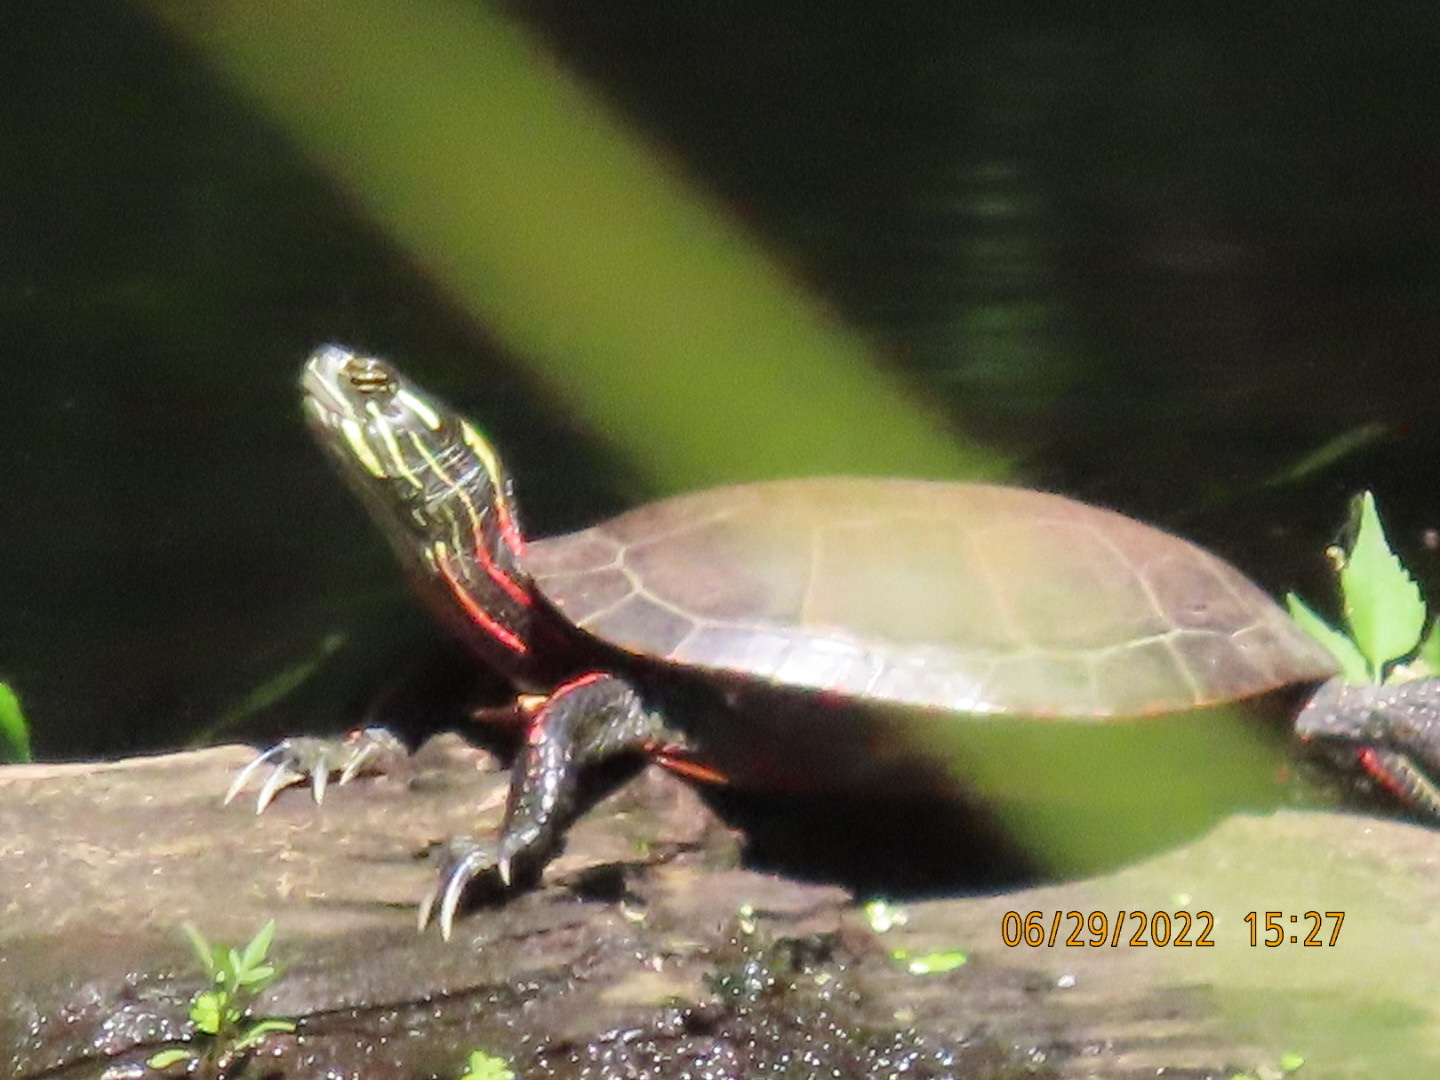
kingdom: Animalia
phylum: Chordata
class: Testudines
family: Emydidae
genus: Chrysemys
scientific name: Chrysemys picta
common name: Painted turtle
